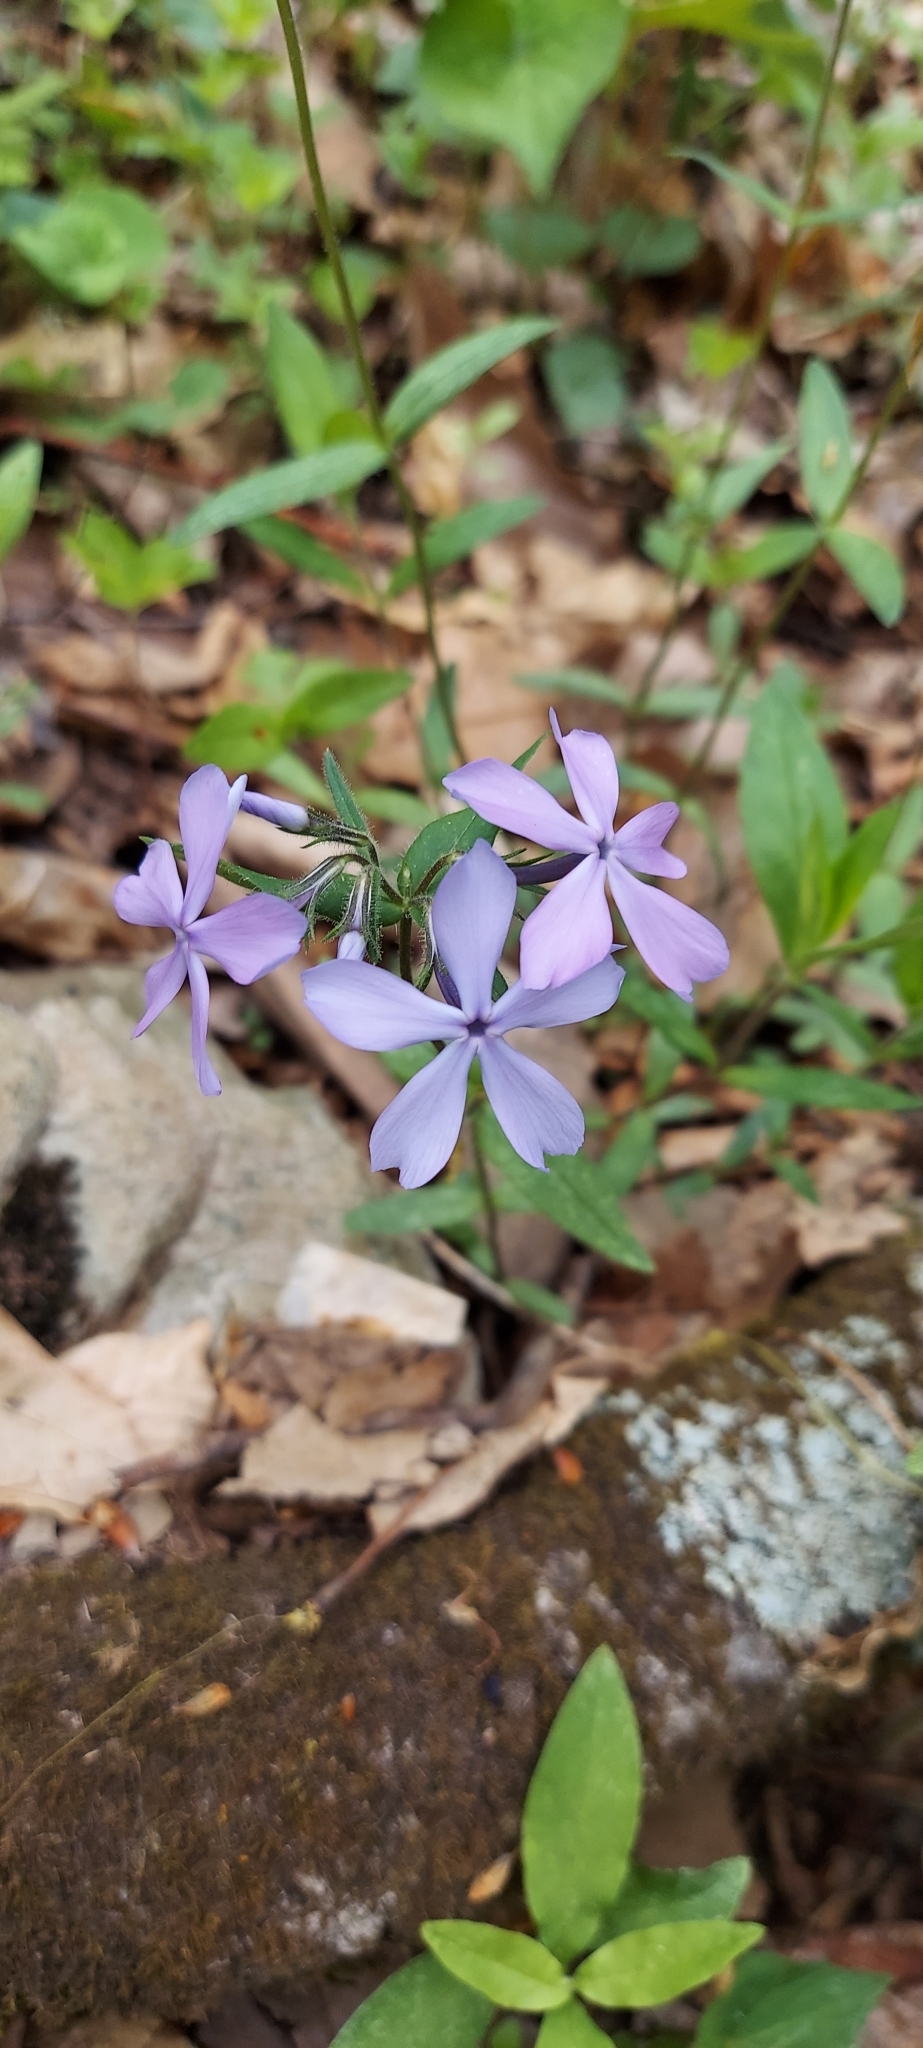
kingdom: Plantae
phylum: Tracheophyta
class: Magnoliopsida
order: Ericales
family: Polemoniaceae
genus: Phlox
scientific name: Phlox divaricata
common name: Blue phlox
